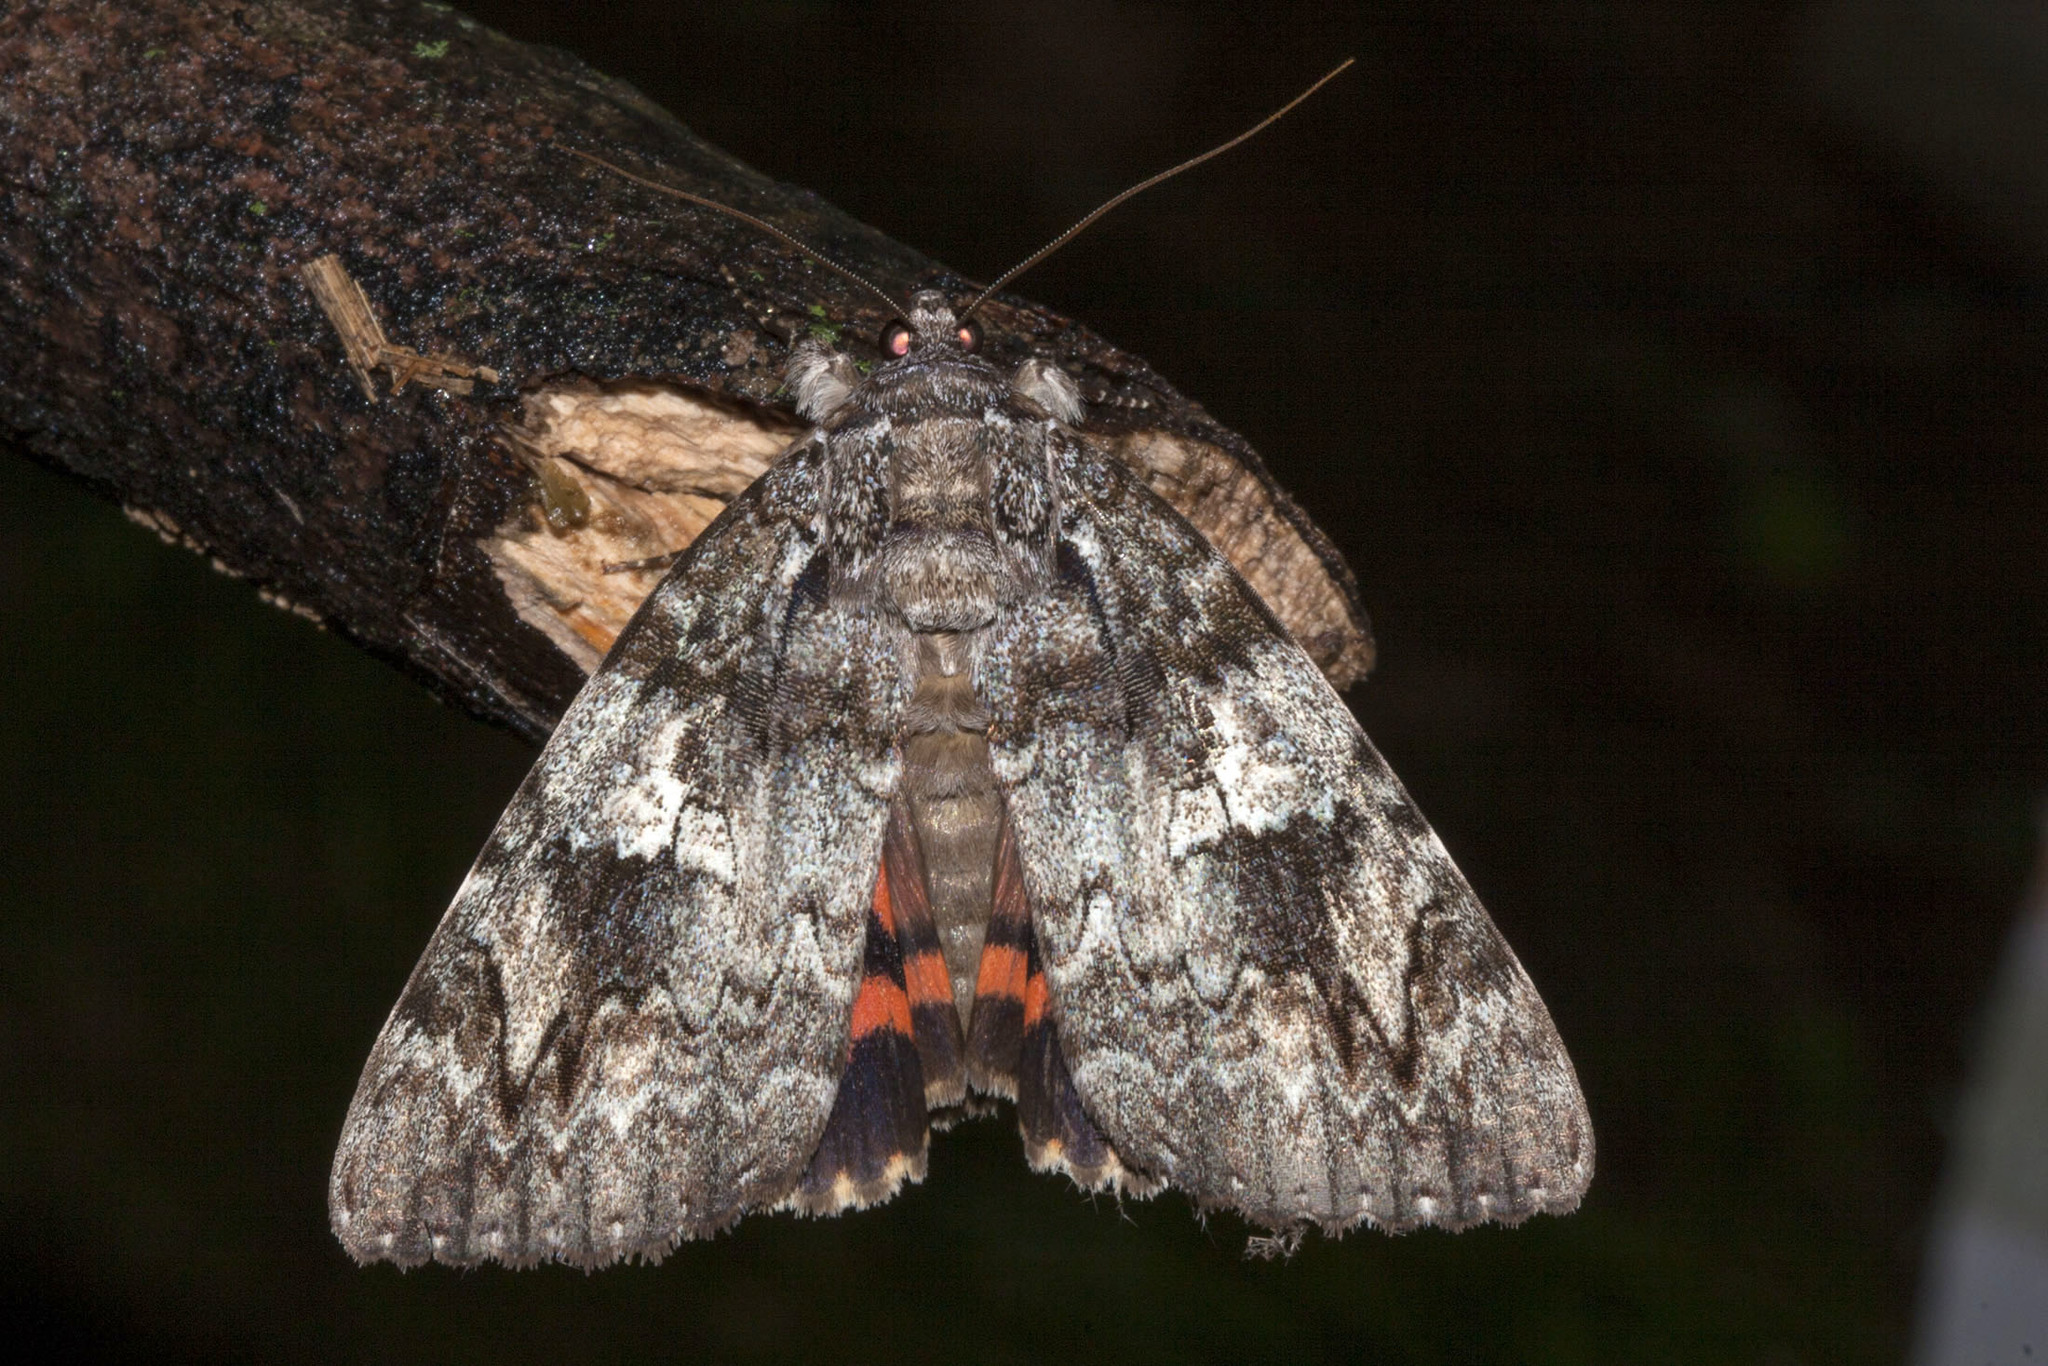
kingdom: Animalia
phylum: Arthropoda
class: Insecta
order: Lepidoptera
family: Erebidae
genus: Catocala
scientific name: Catocala ilia
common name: Ilia underwing
